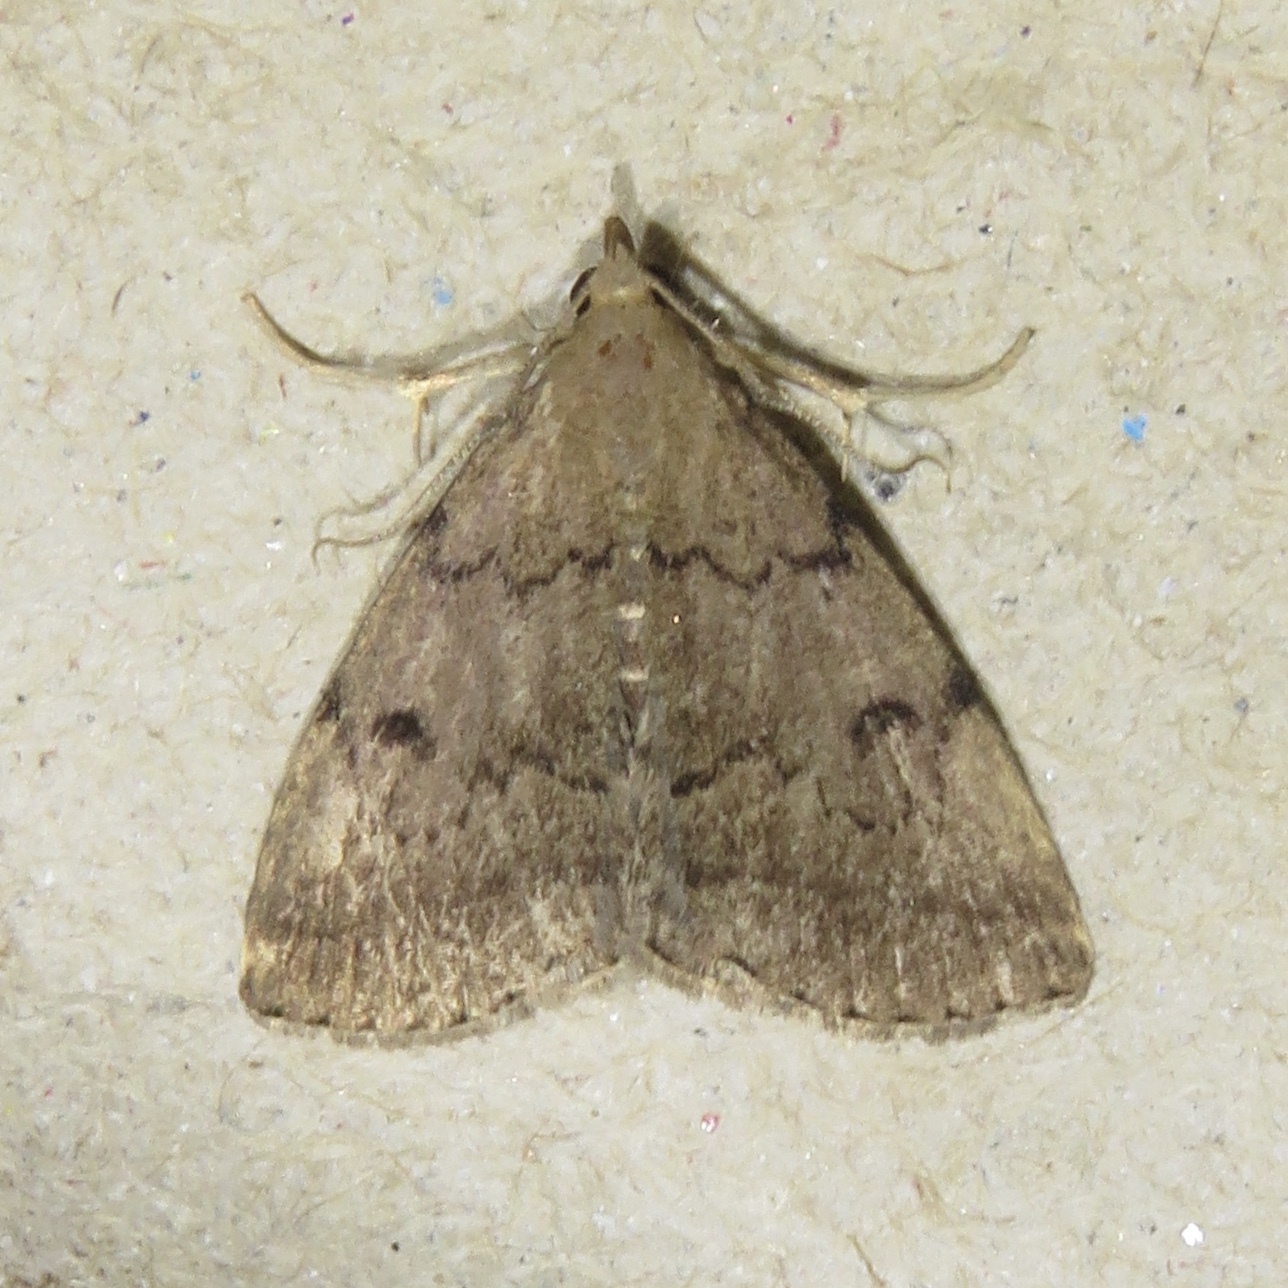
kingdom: Animalia
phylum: Arthropoda
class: Insecta
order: Lepidoptera
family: Erebidae
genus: Zanclognatha
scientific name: Zanclognatha dentata
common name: Toothed fan-foot
